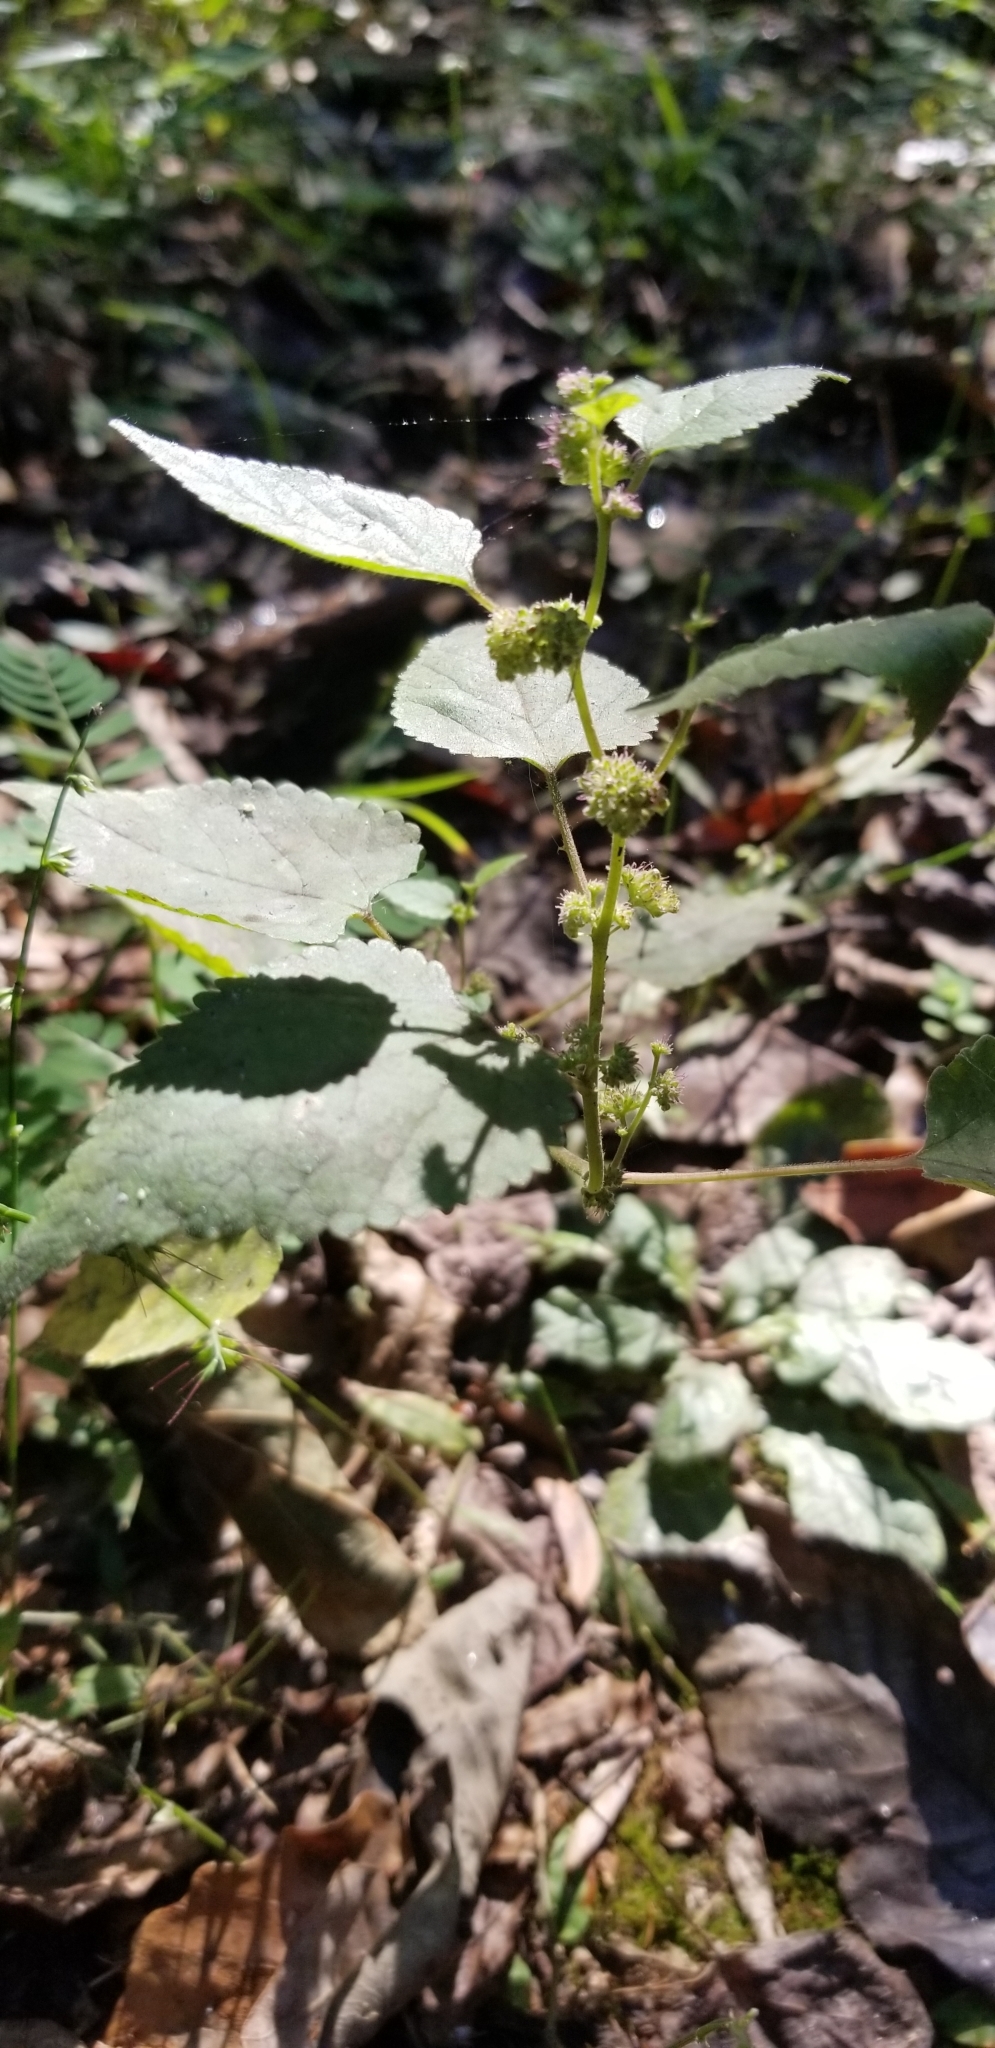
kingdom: Plantae
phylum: Tracheophyta
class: Magnoliopsida
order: Rosales
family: Moraceae
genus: Fatoua
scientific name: Fatoua villosa
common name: Hairy crabweed
